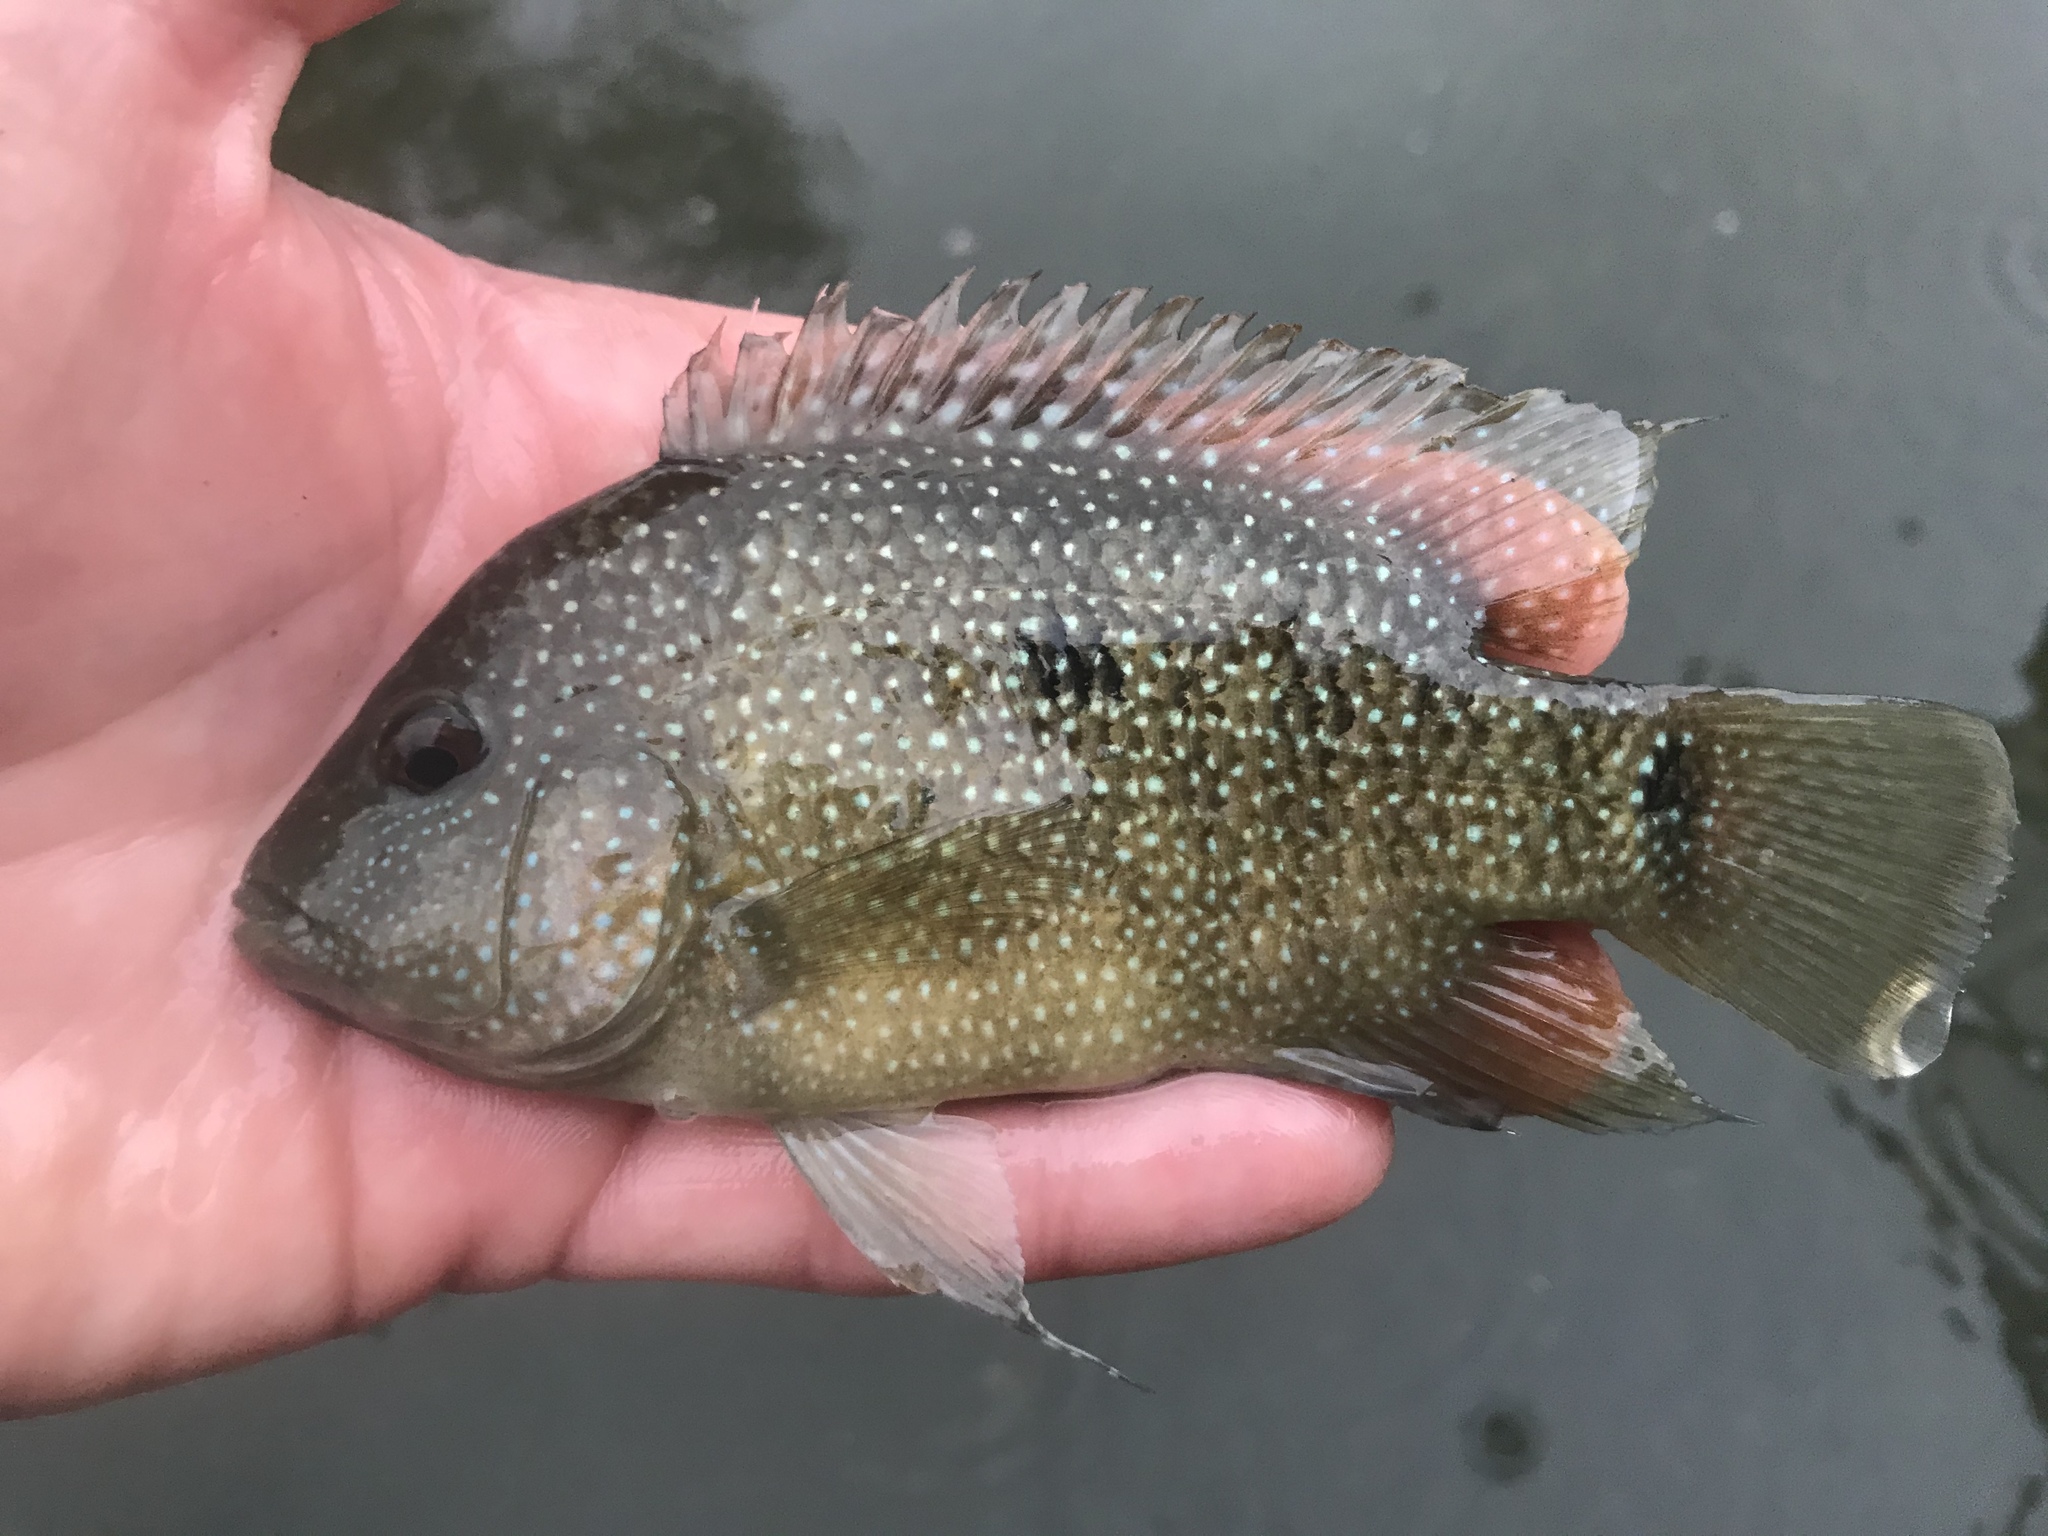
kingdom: Animalia
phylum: Chordata
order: Perciformes
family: Cichlidae
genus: Herichthys
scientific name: Herichthys cyanoguttatus
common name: Rio grande cichlid
